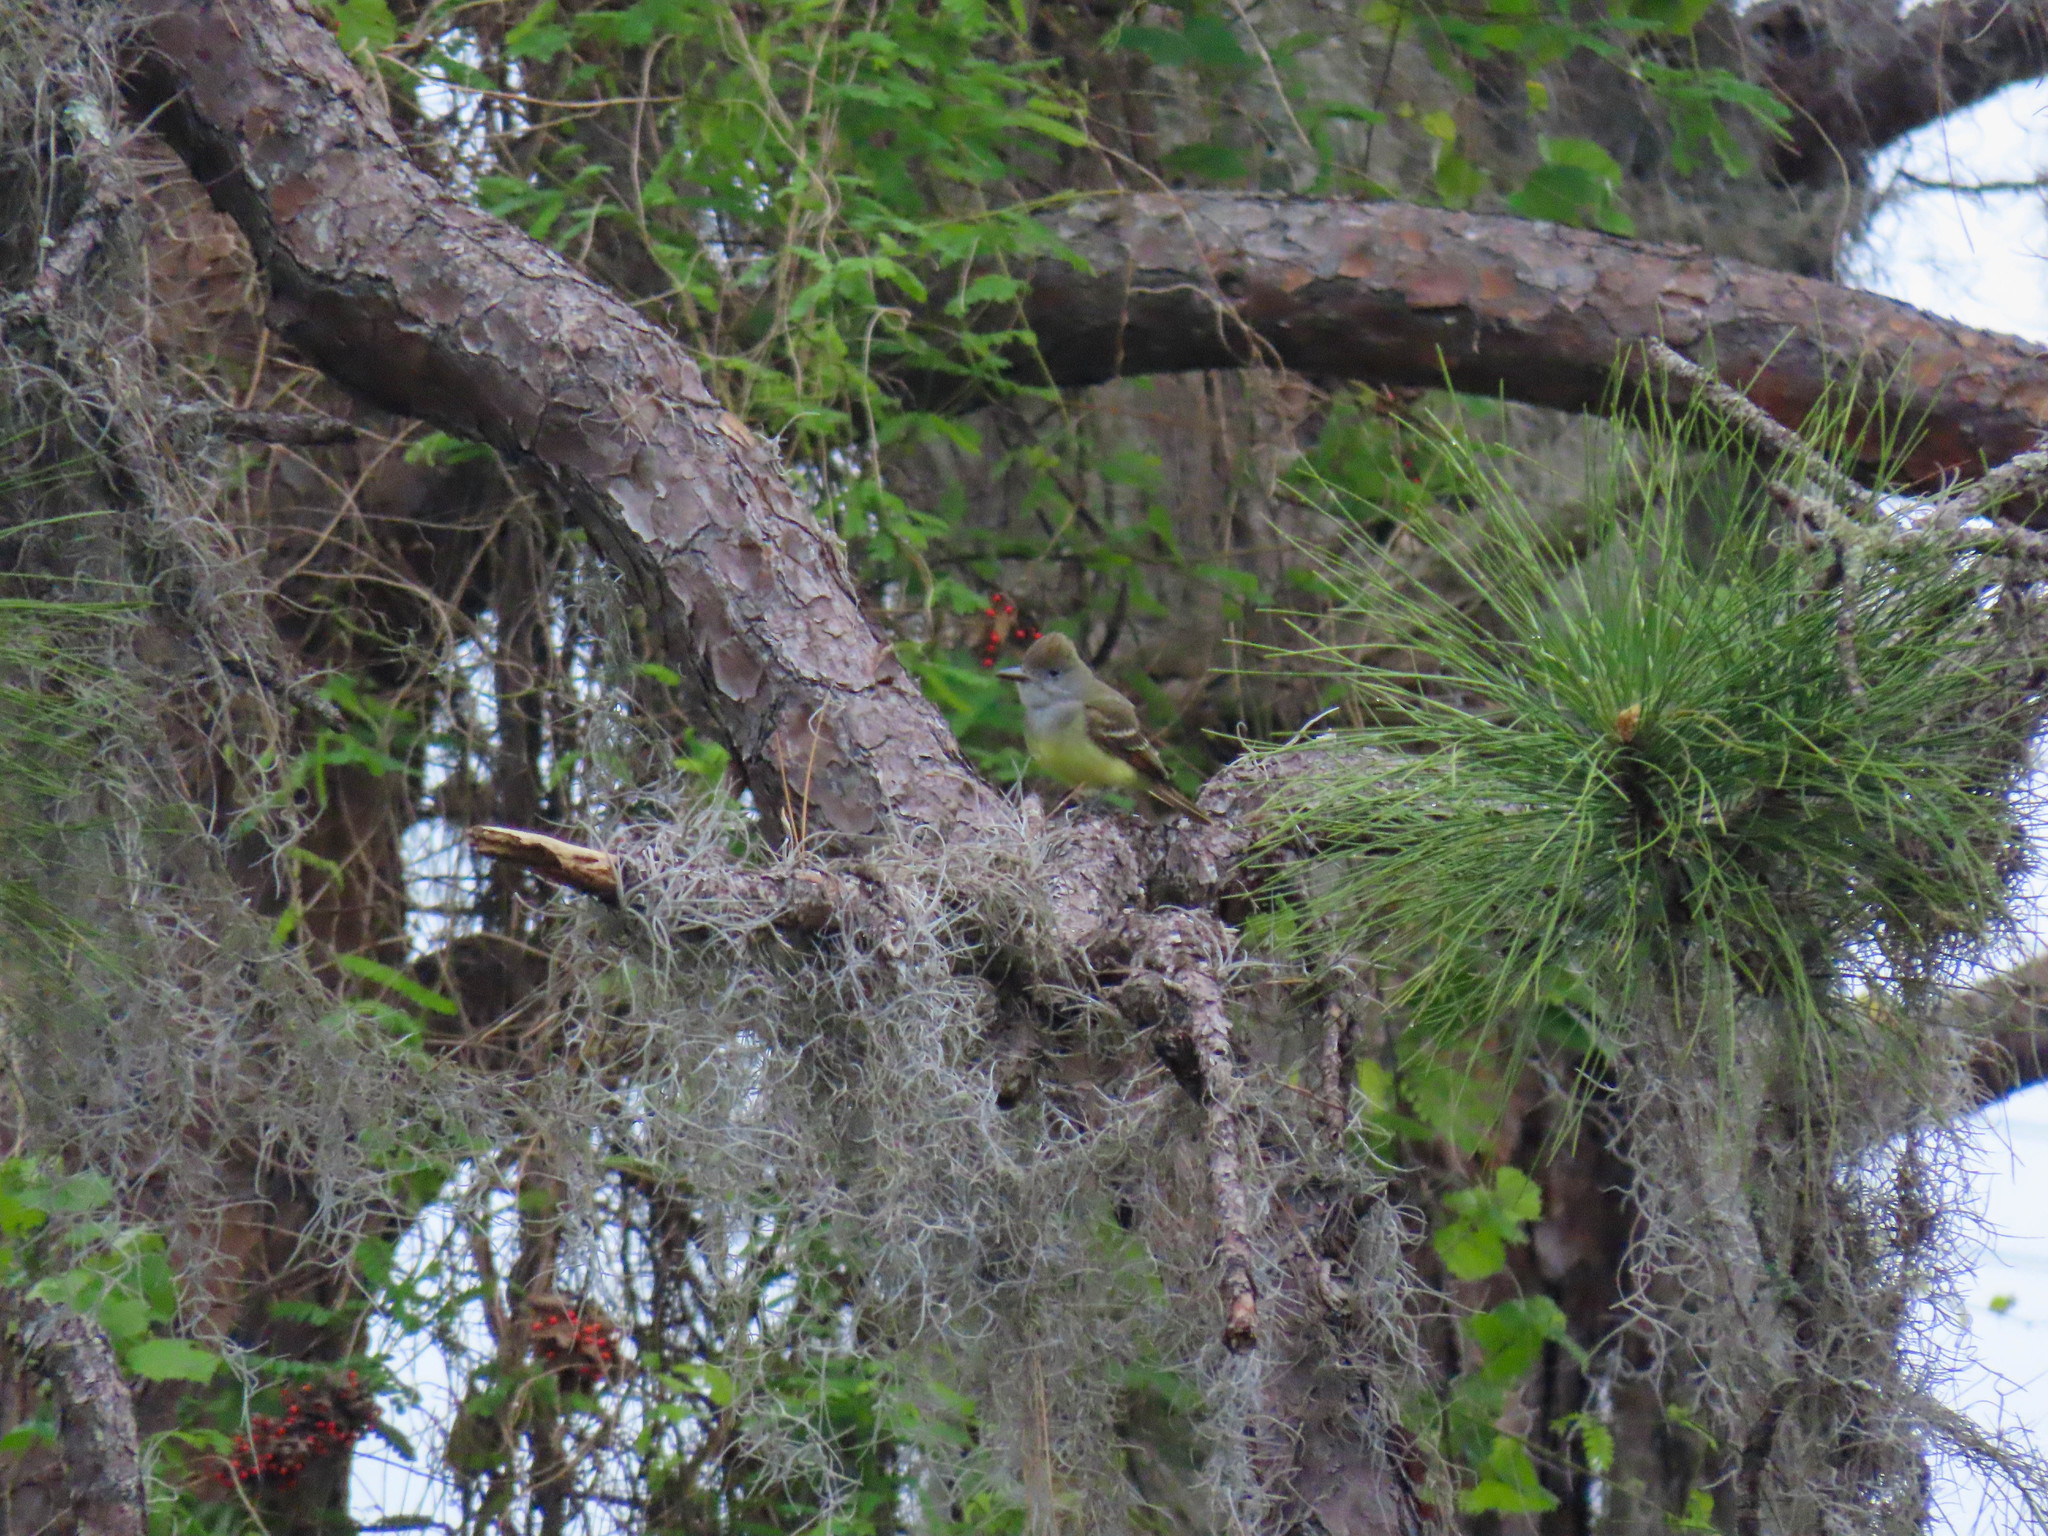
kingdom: Animalia
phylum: Chordata
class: Aves
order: Passeriformes
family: Tyrannidae
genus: Myiarchus
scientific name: Myiarchus crinitus
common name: Great crested flycatcher
